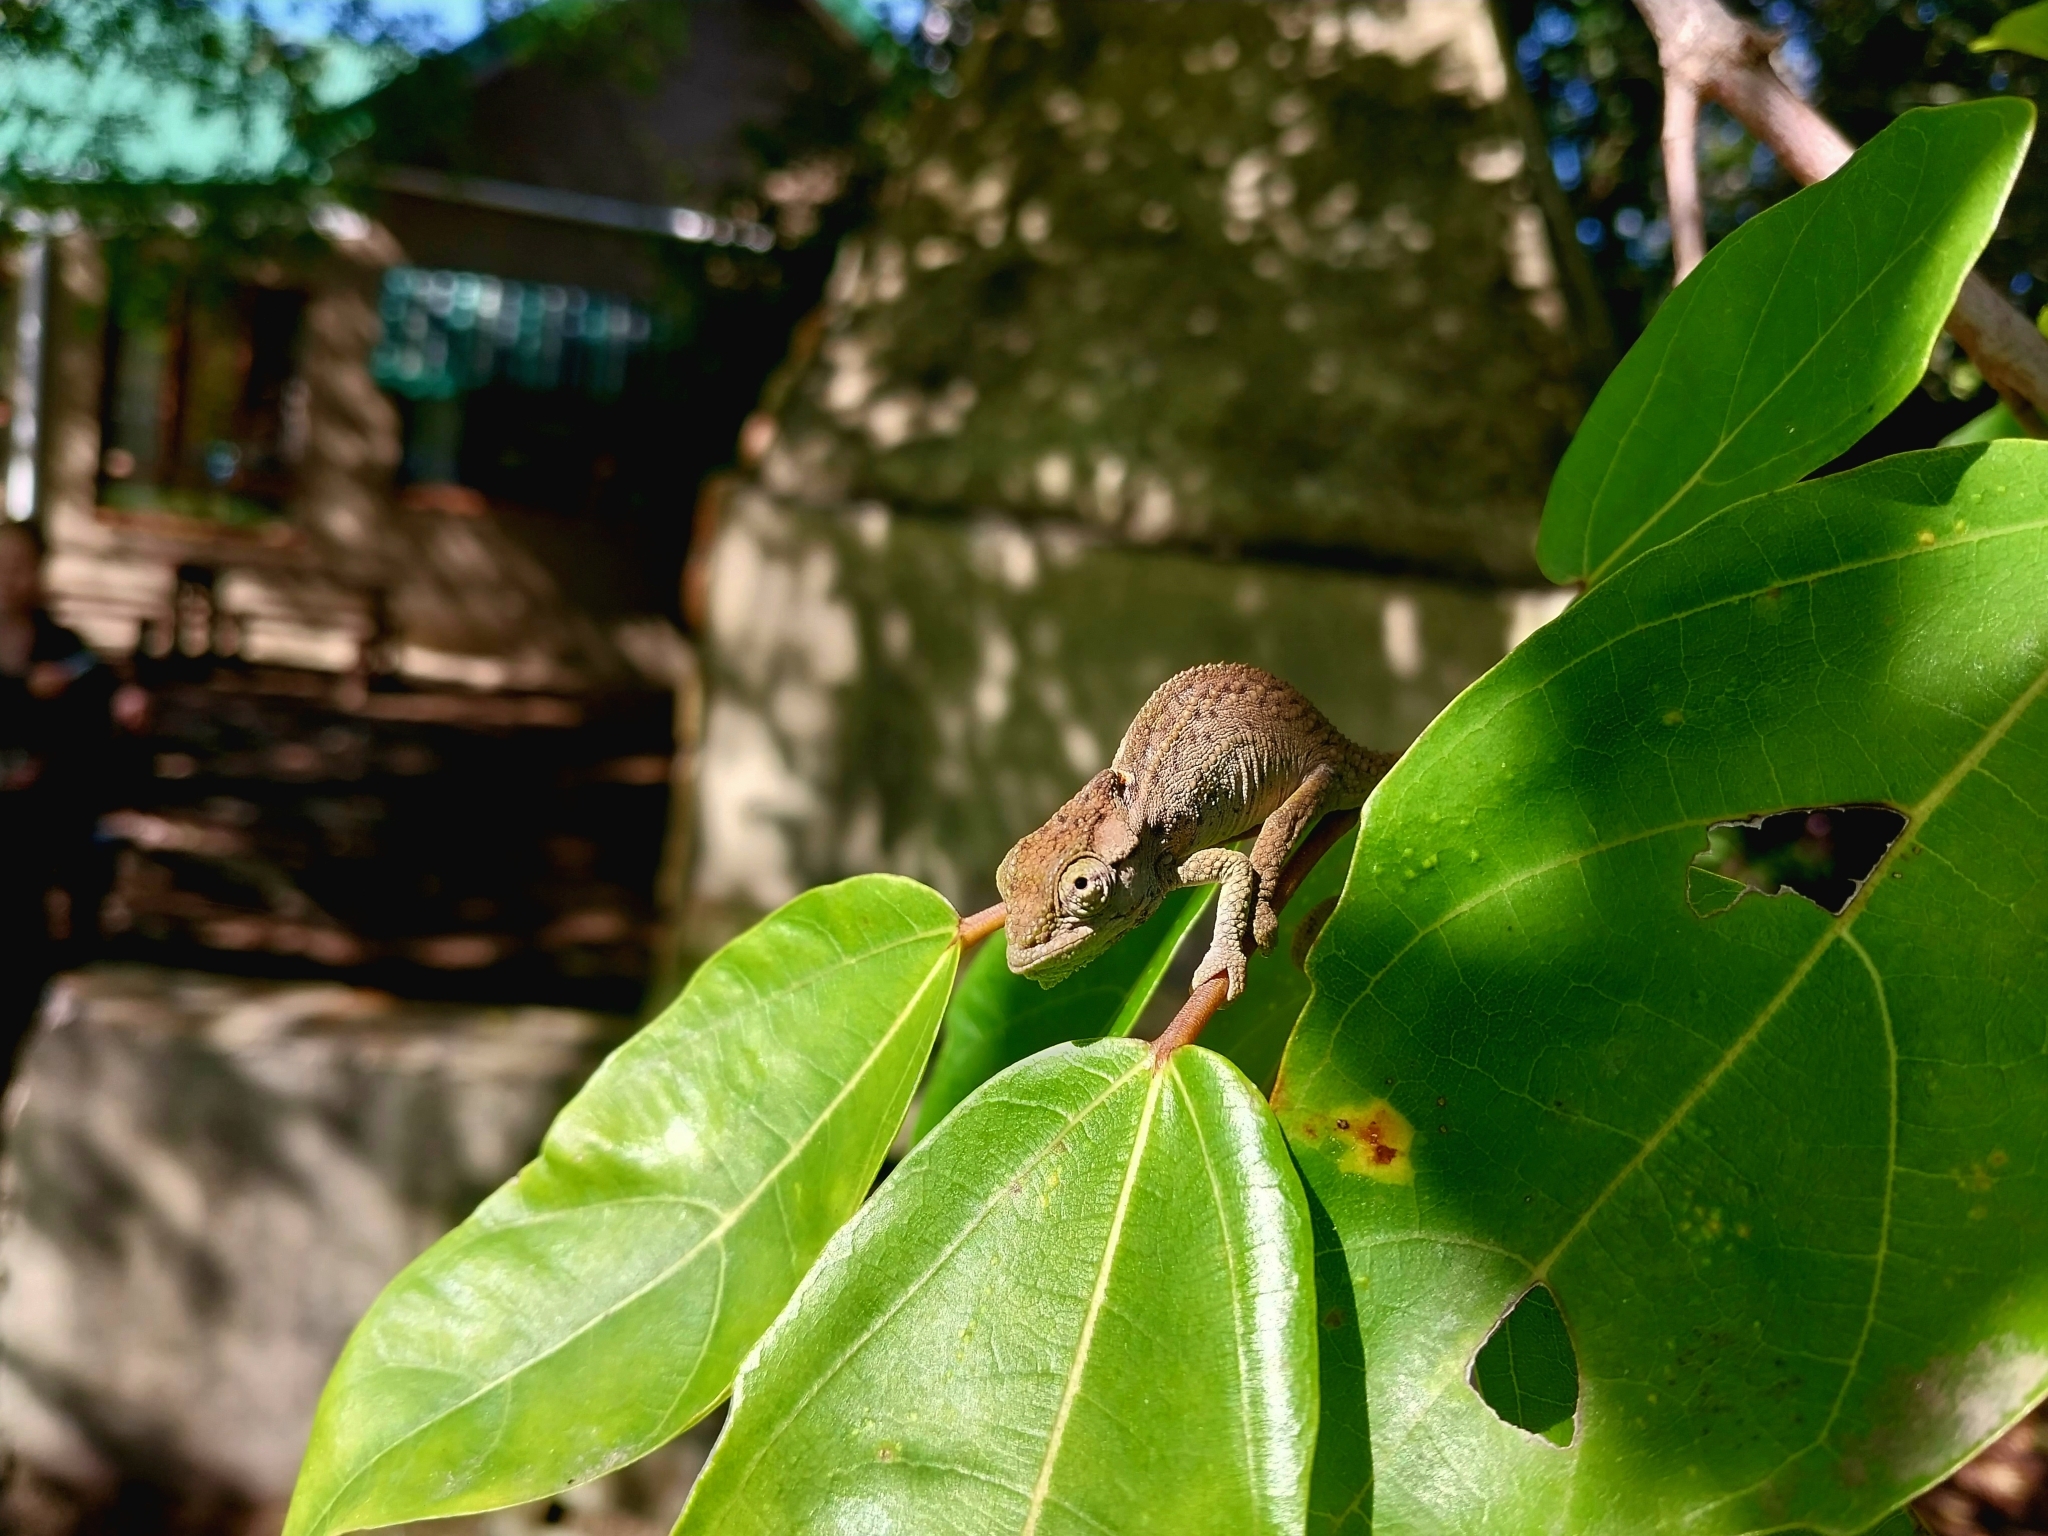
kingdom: Animalia
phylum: Chordata
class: Squamata
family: Chamaeleonidae
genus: Bradypodion
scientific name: Bradypodion damaranum
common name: Knysna dwarf chameleon
